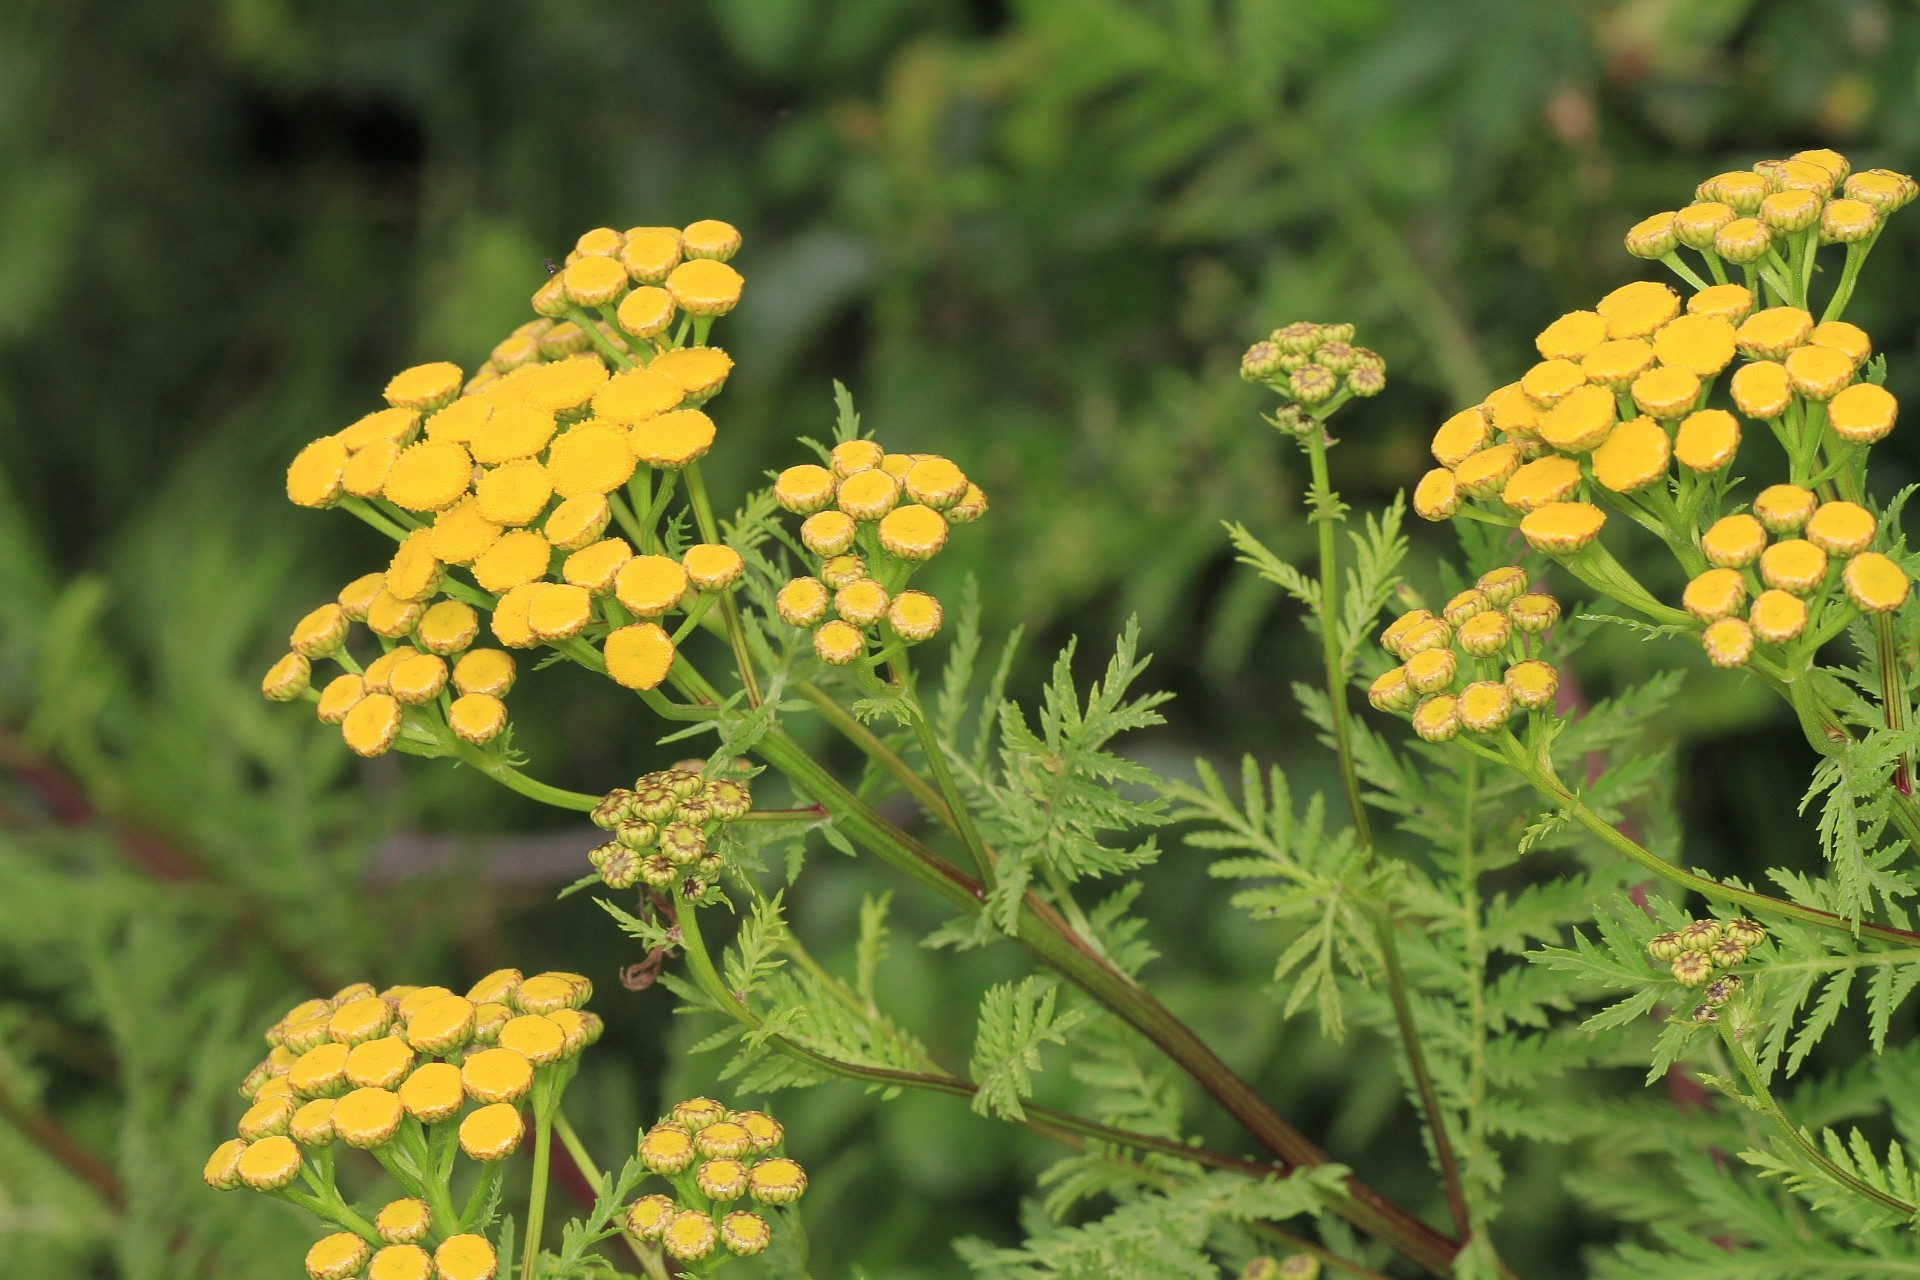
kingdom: Plantae
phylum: Tracheophyta
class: Magnoliopsida
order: Asterales
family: Asteraceae
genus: Tanacetum
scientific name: Tanacetum vulgare
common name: Common tansy
